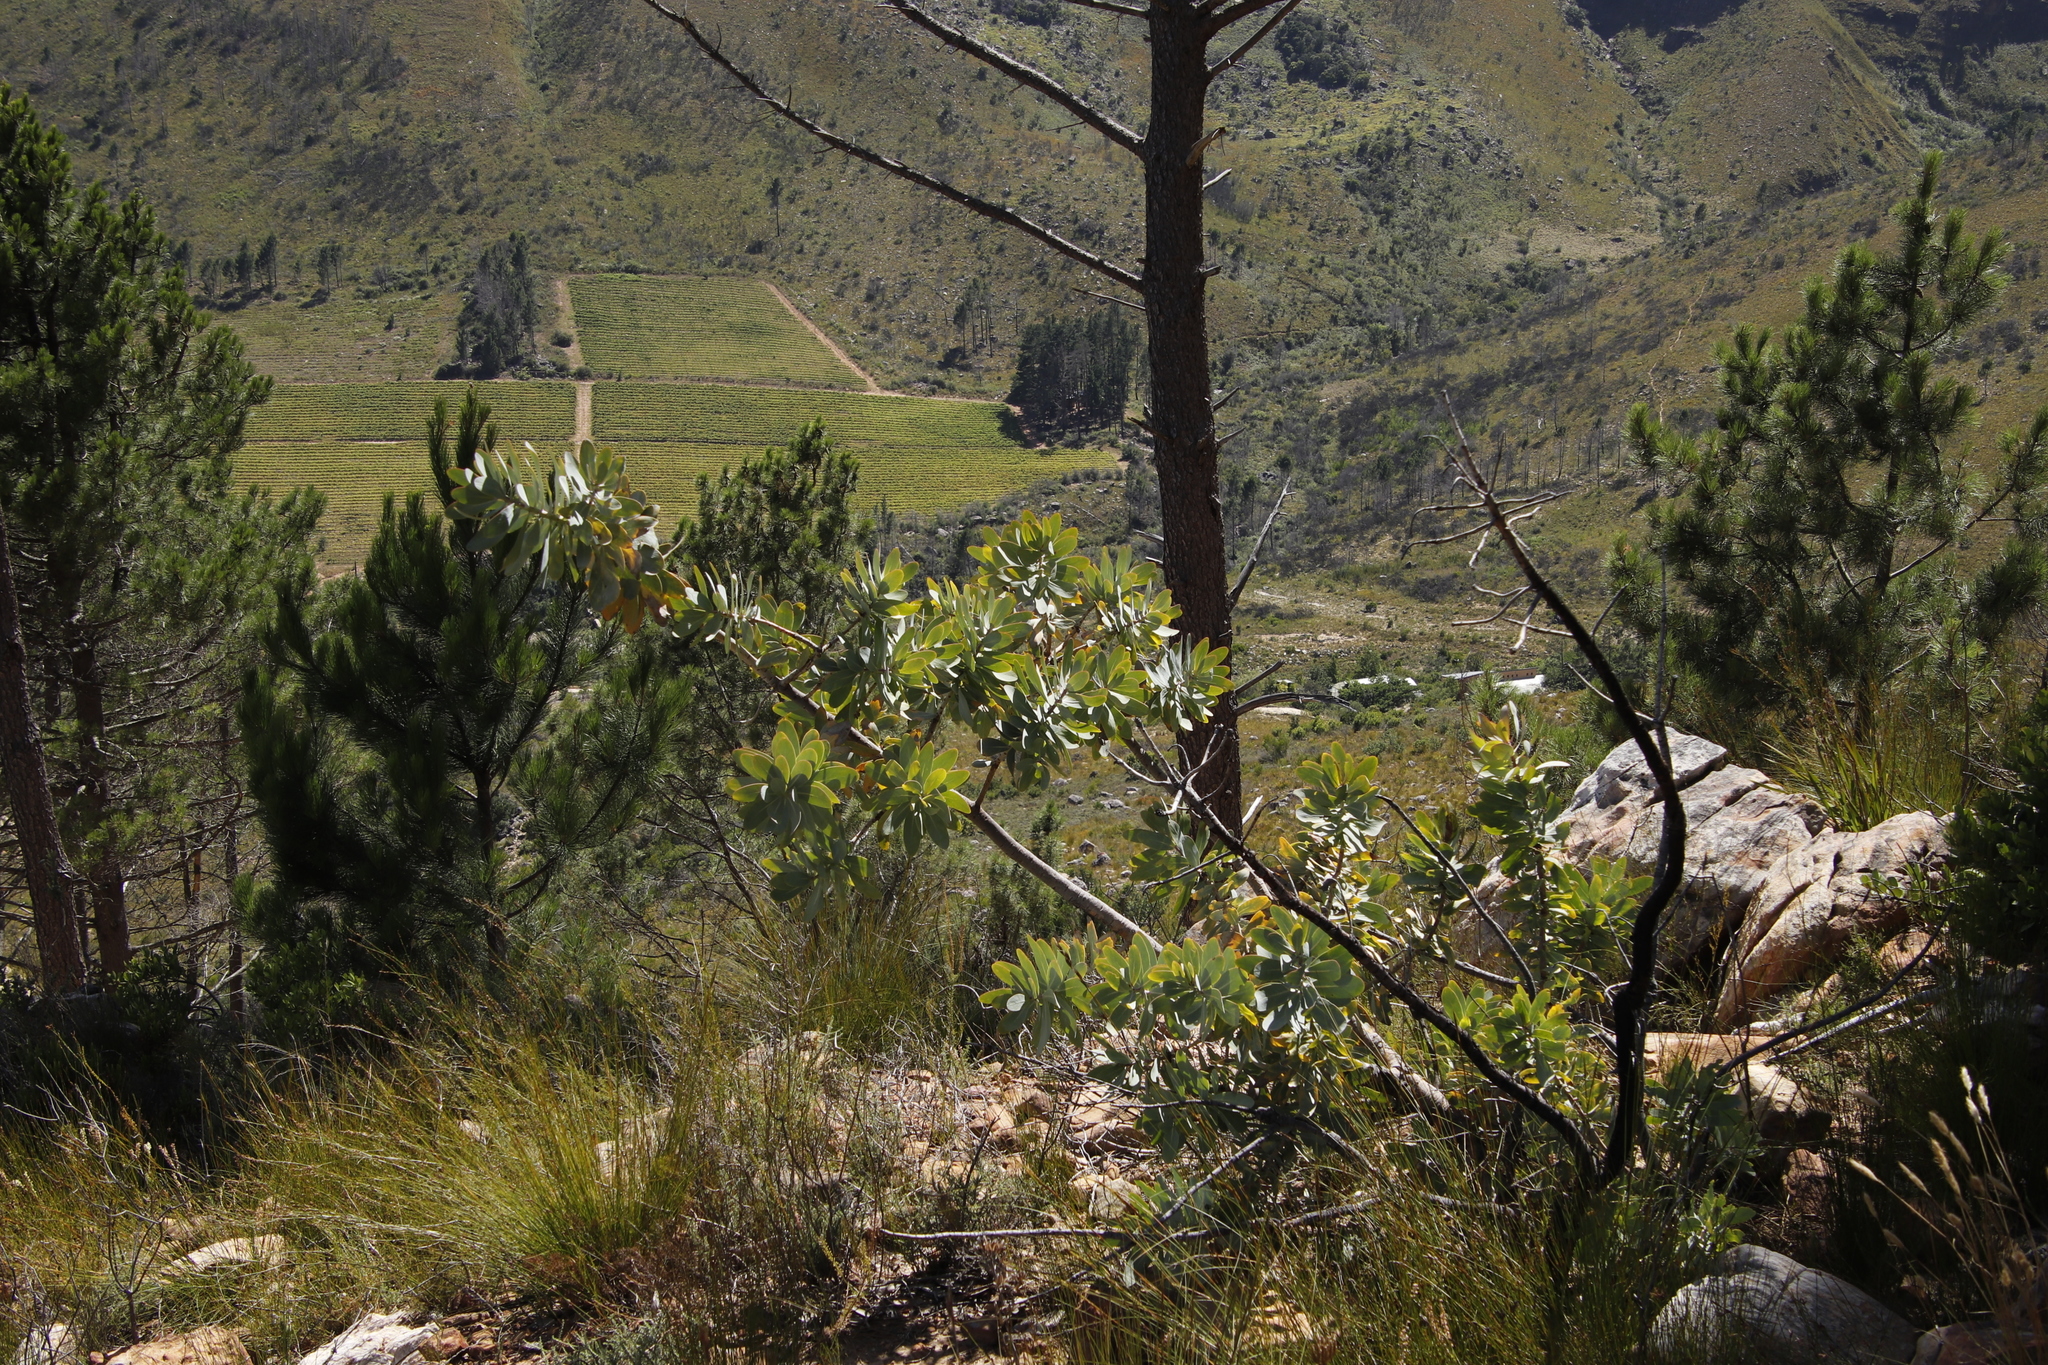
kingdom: Plantae
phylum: Tracheophyta
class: Magnoliopsida
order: Proteales
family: Proteaceae
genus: Protea
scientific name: Protea nitida
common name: Tree protea
